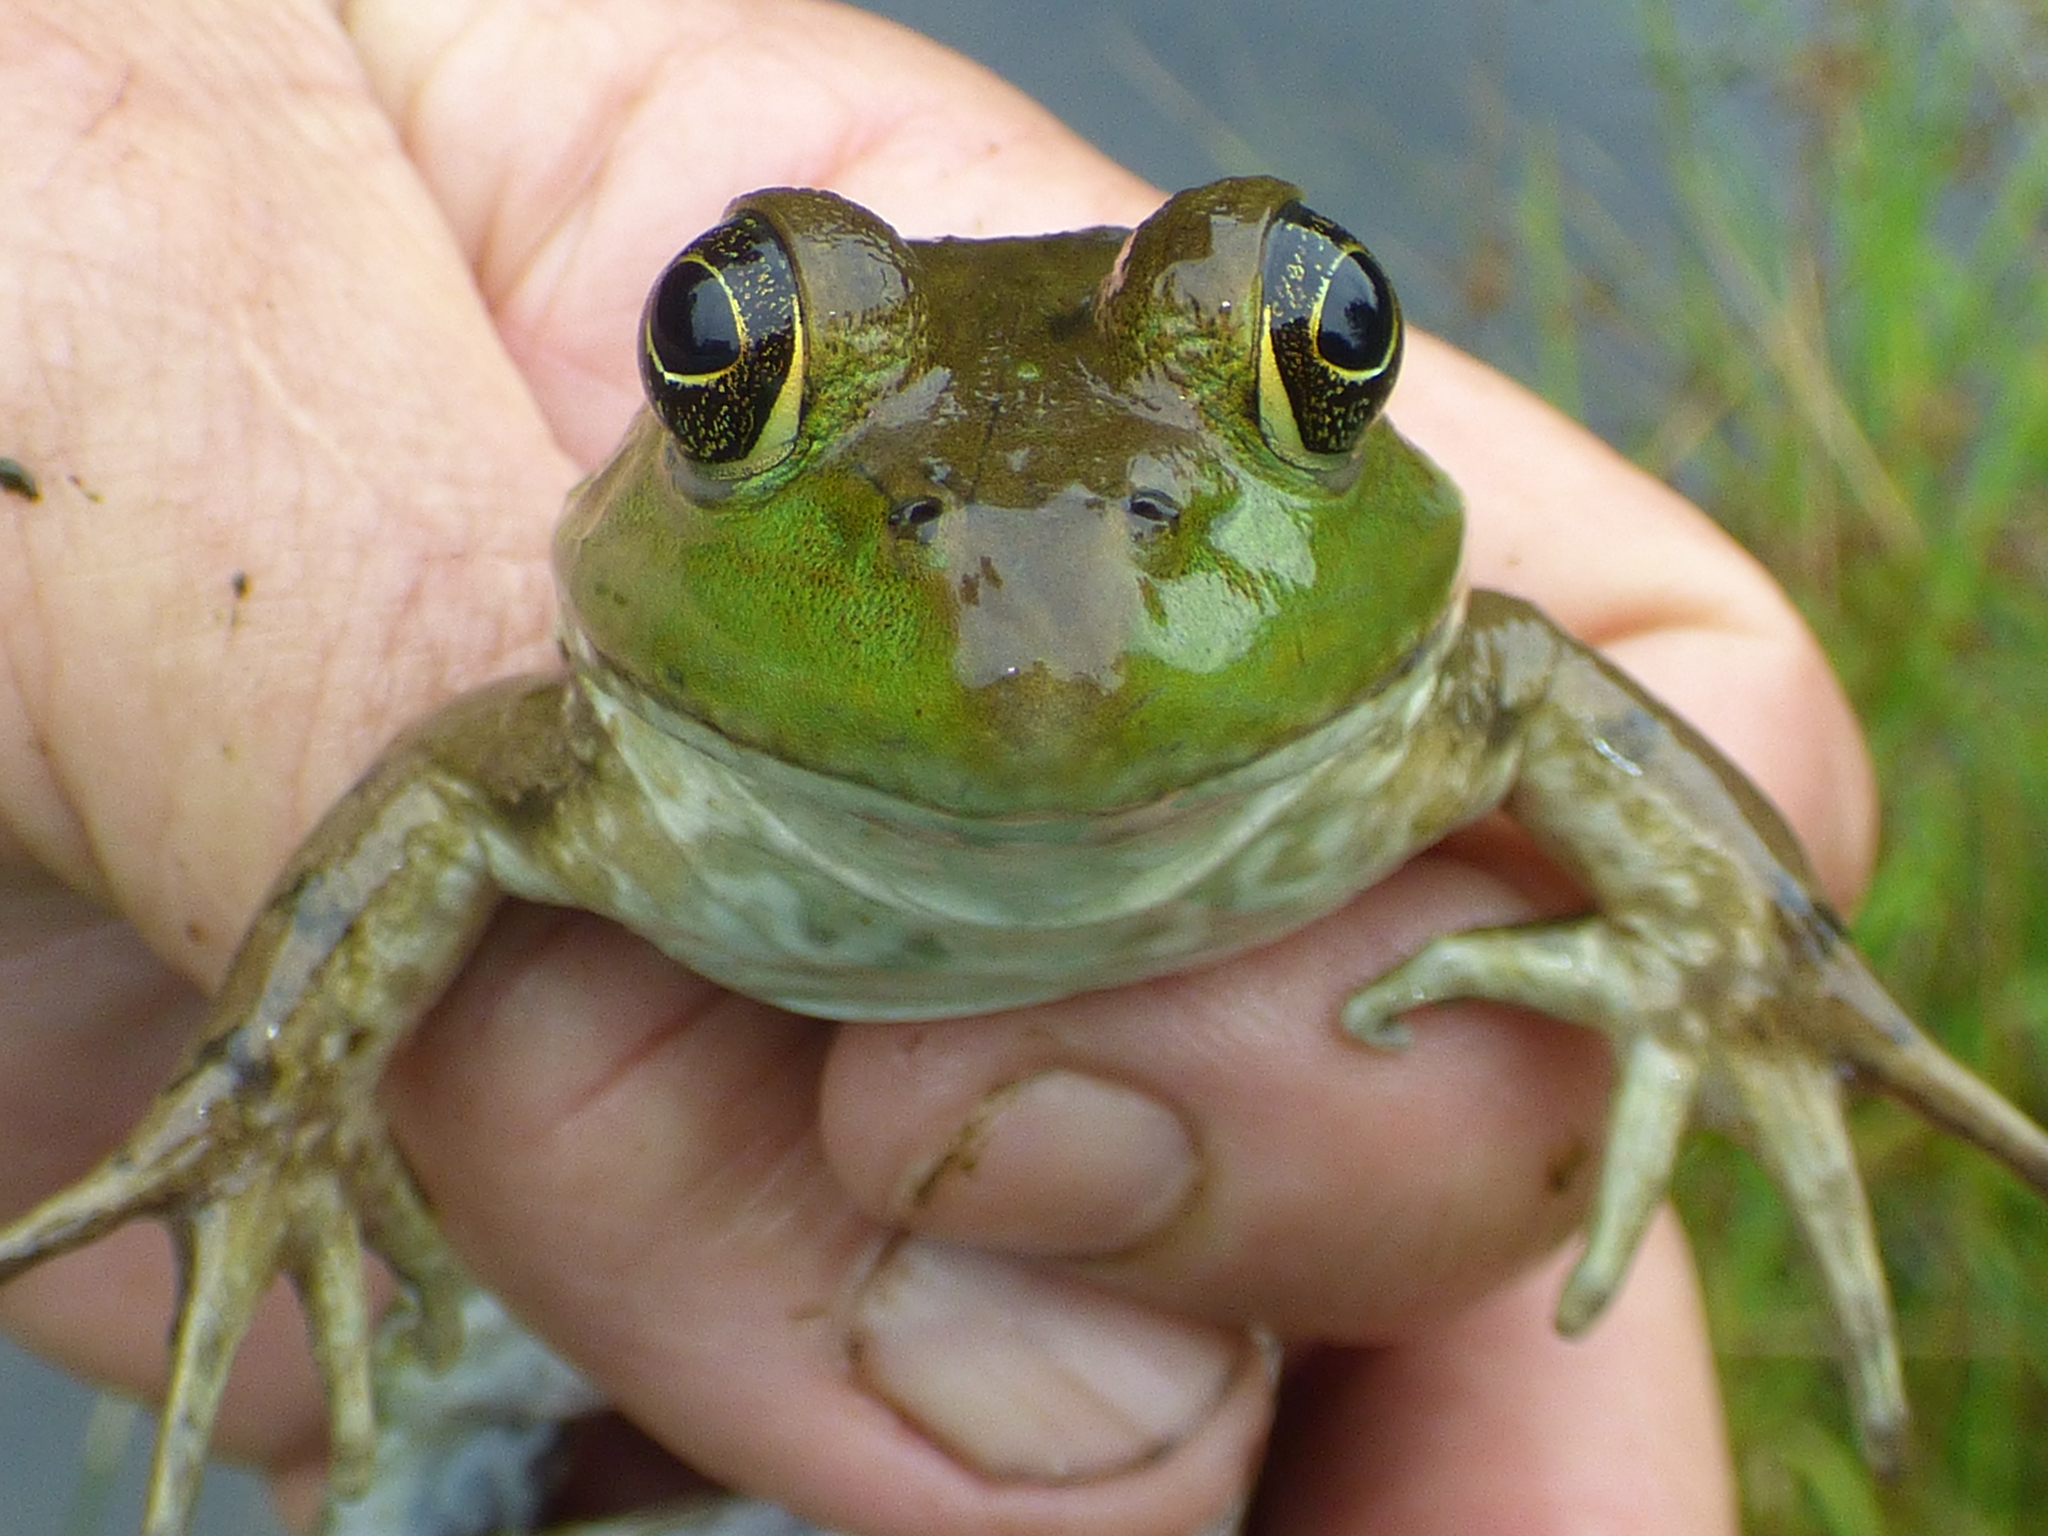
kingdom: Animalia
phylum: Chordata
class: Amphibia
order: Anura
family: Ranidae
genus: Lithobates
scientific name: Lithobates catesbeianus
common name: American bullfrog
